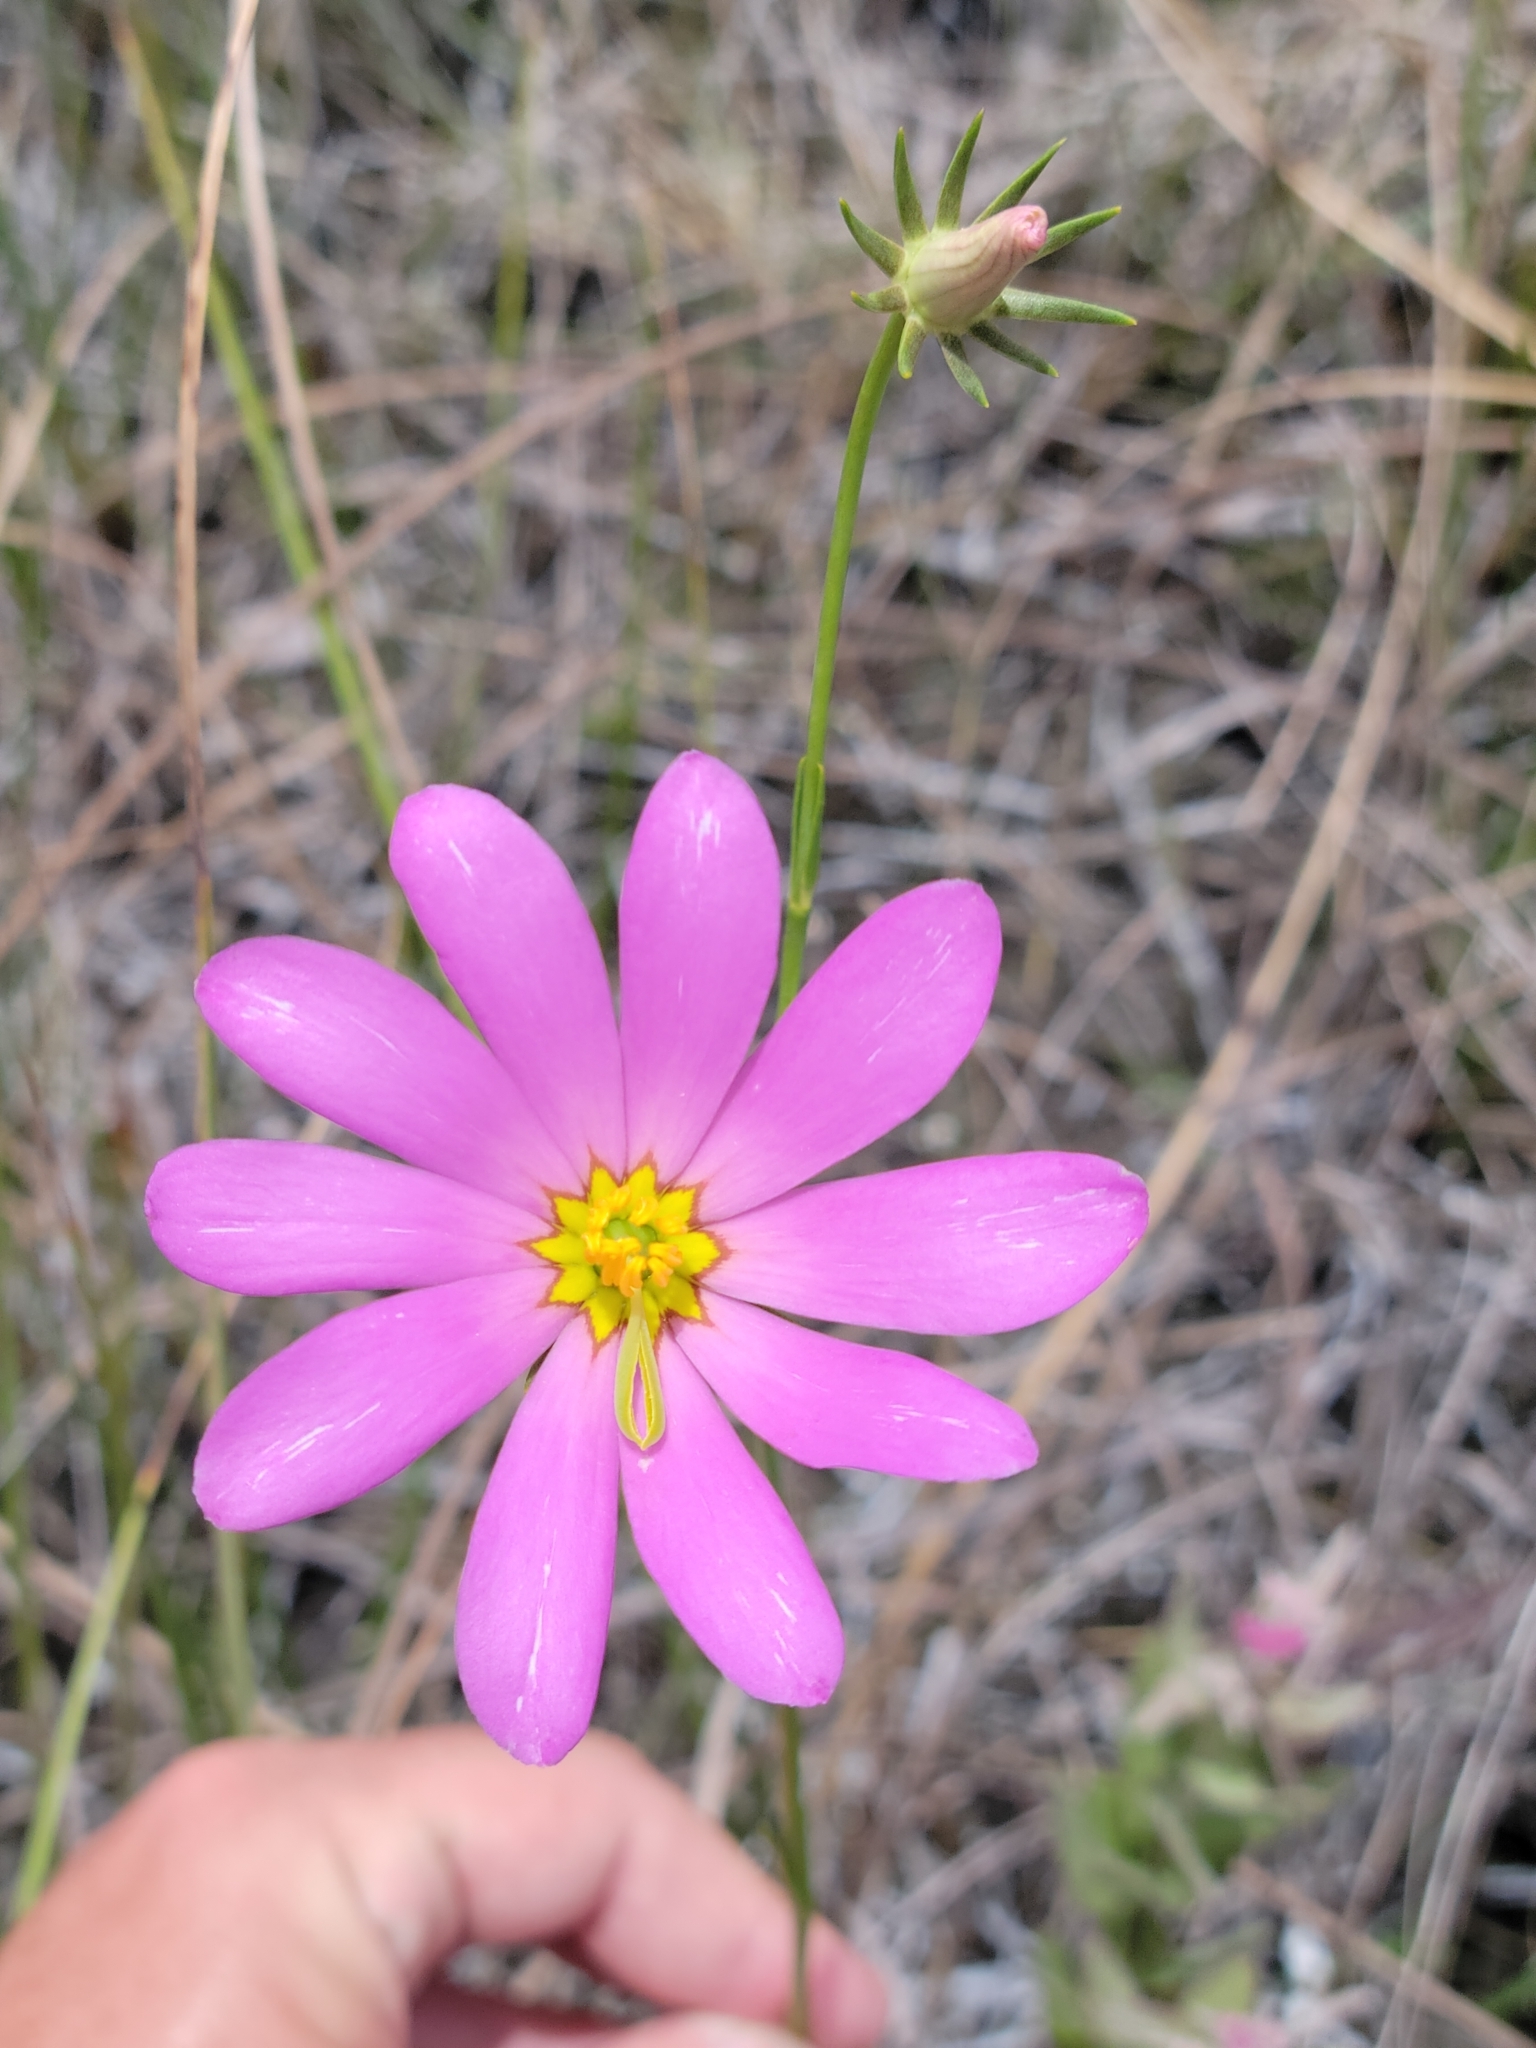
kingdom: Plantae
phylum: Tracheophyta
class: Magnoliopsida
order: Gentianales
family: Gentianaceae
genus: Sabatia
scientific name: Sabatia decandra
